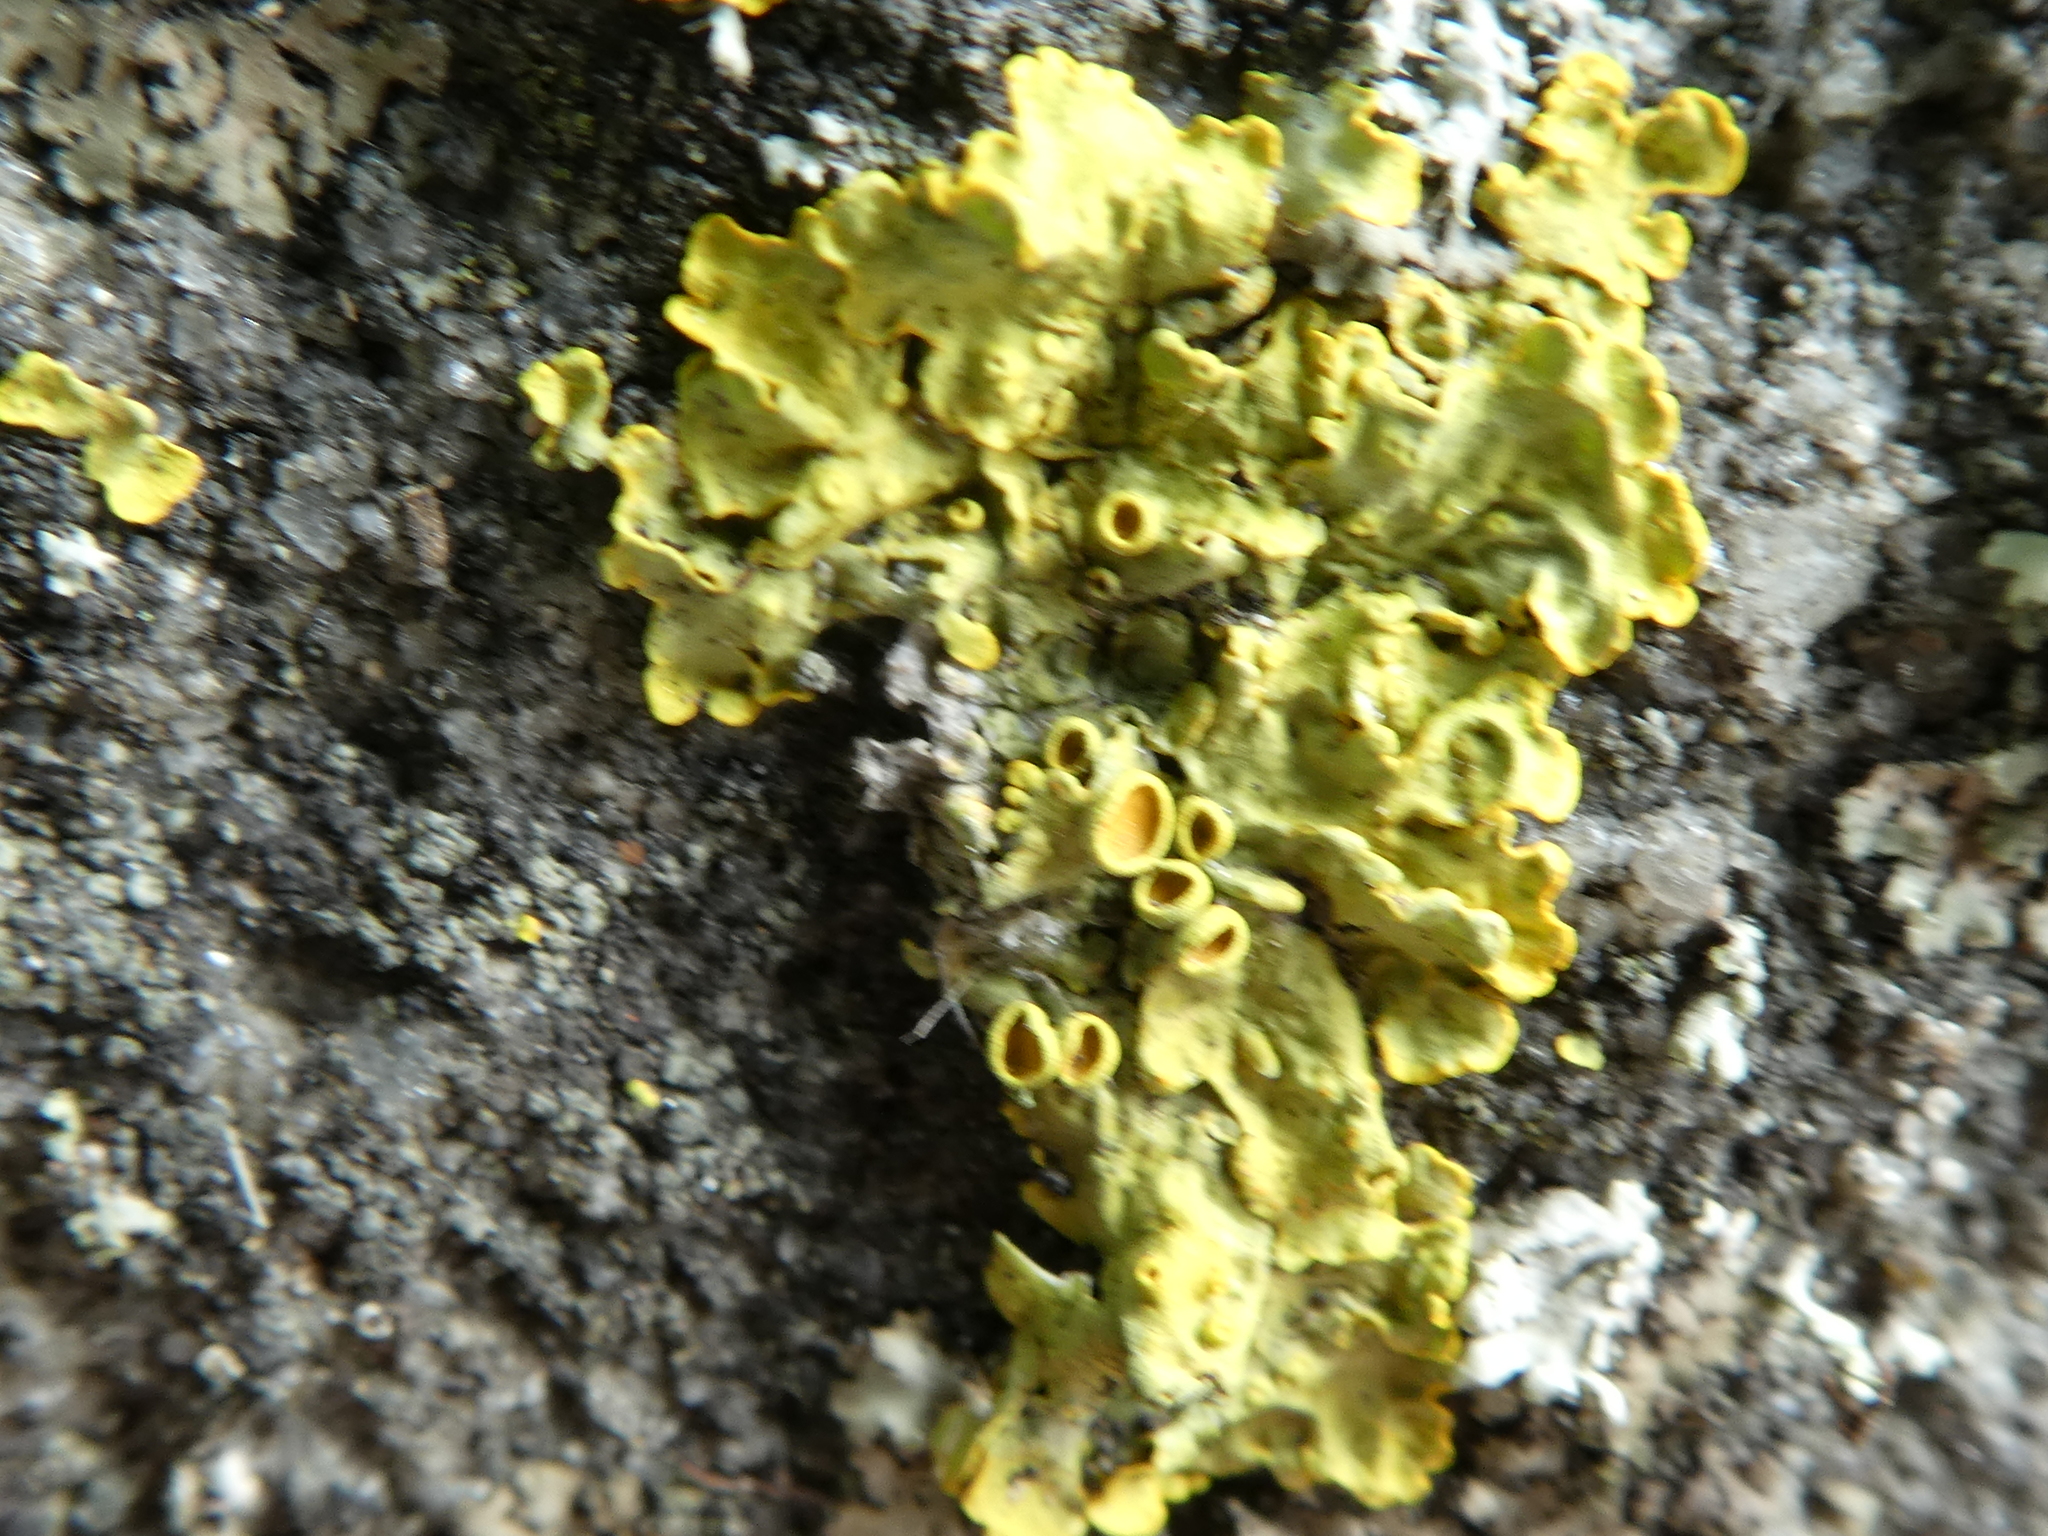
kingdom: Fungi
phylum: Ascomycota
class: Lecanoromycetes
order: Teloschistales
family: Teloschistaceae
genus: Xanthoria
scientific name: Xanthoria parietina
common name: Common orange lichen
